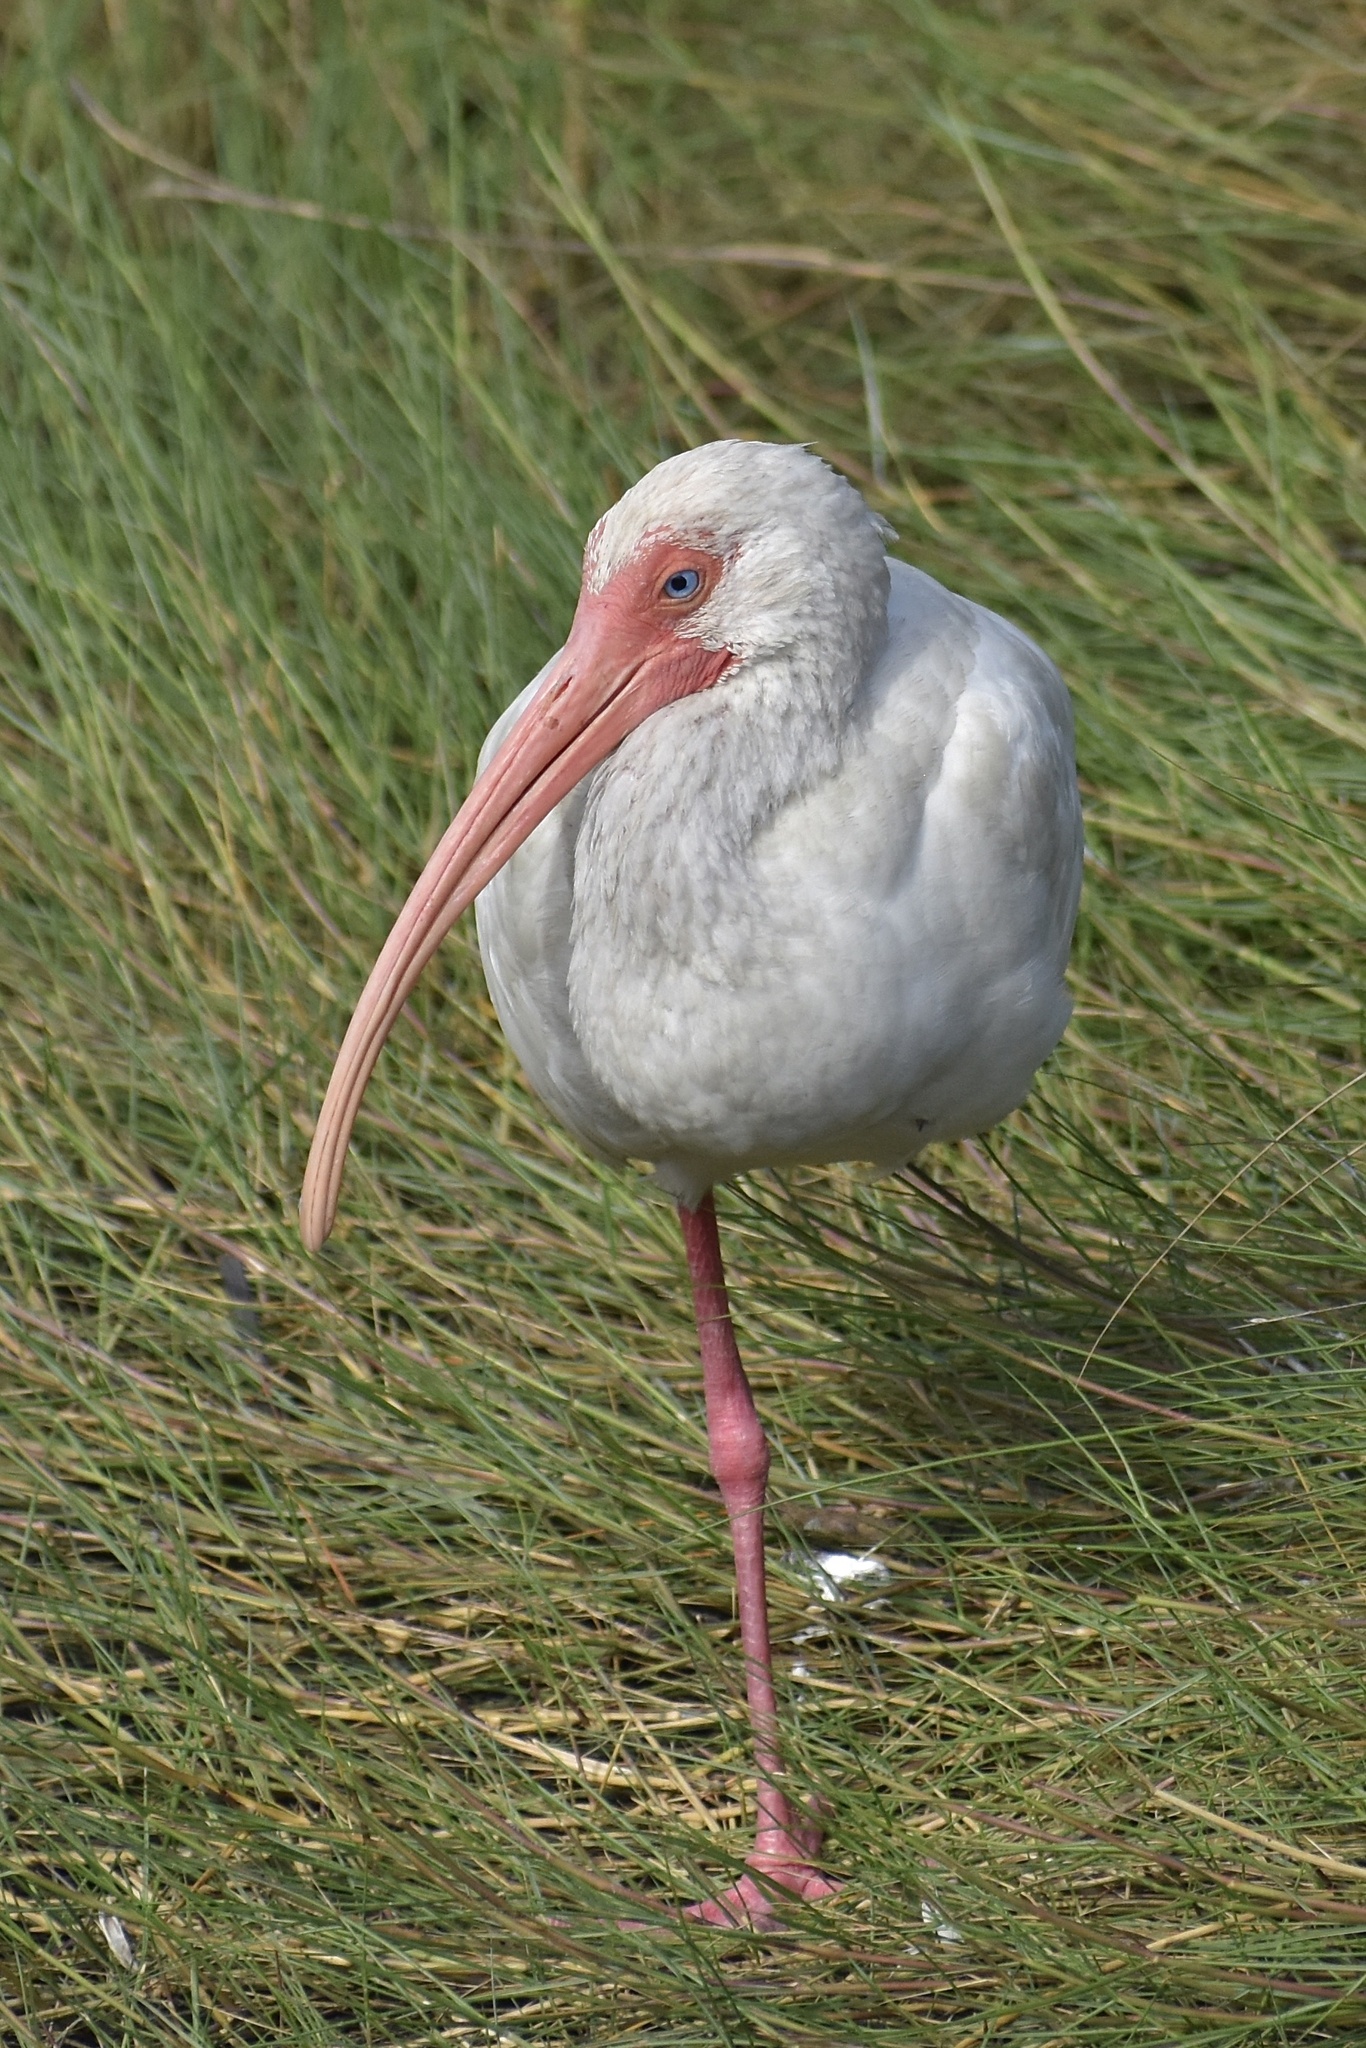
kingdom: Animalia
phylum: Chordata
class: Aves
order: Pelecaniformes
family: Threskiornithidae
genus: Eudocimus
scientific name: Eudocimus albus
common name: White ibis
